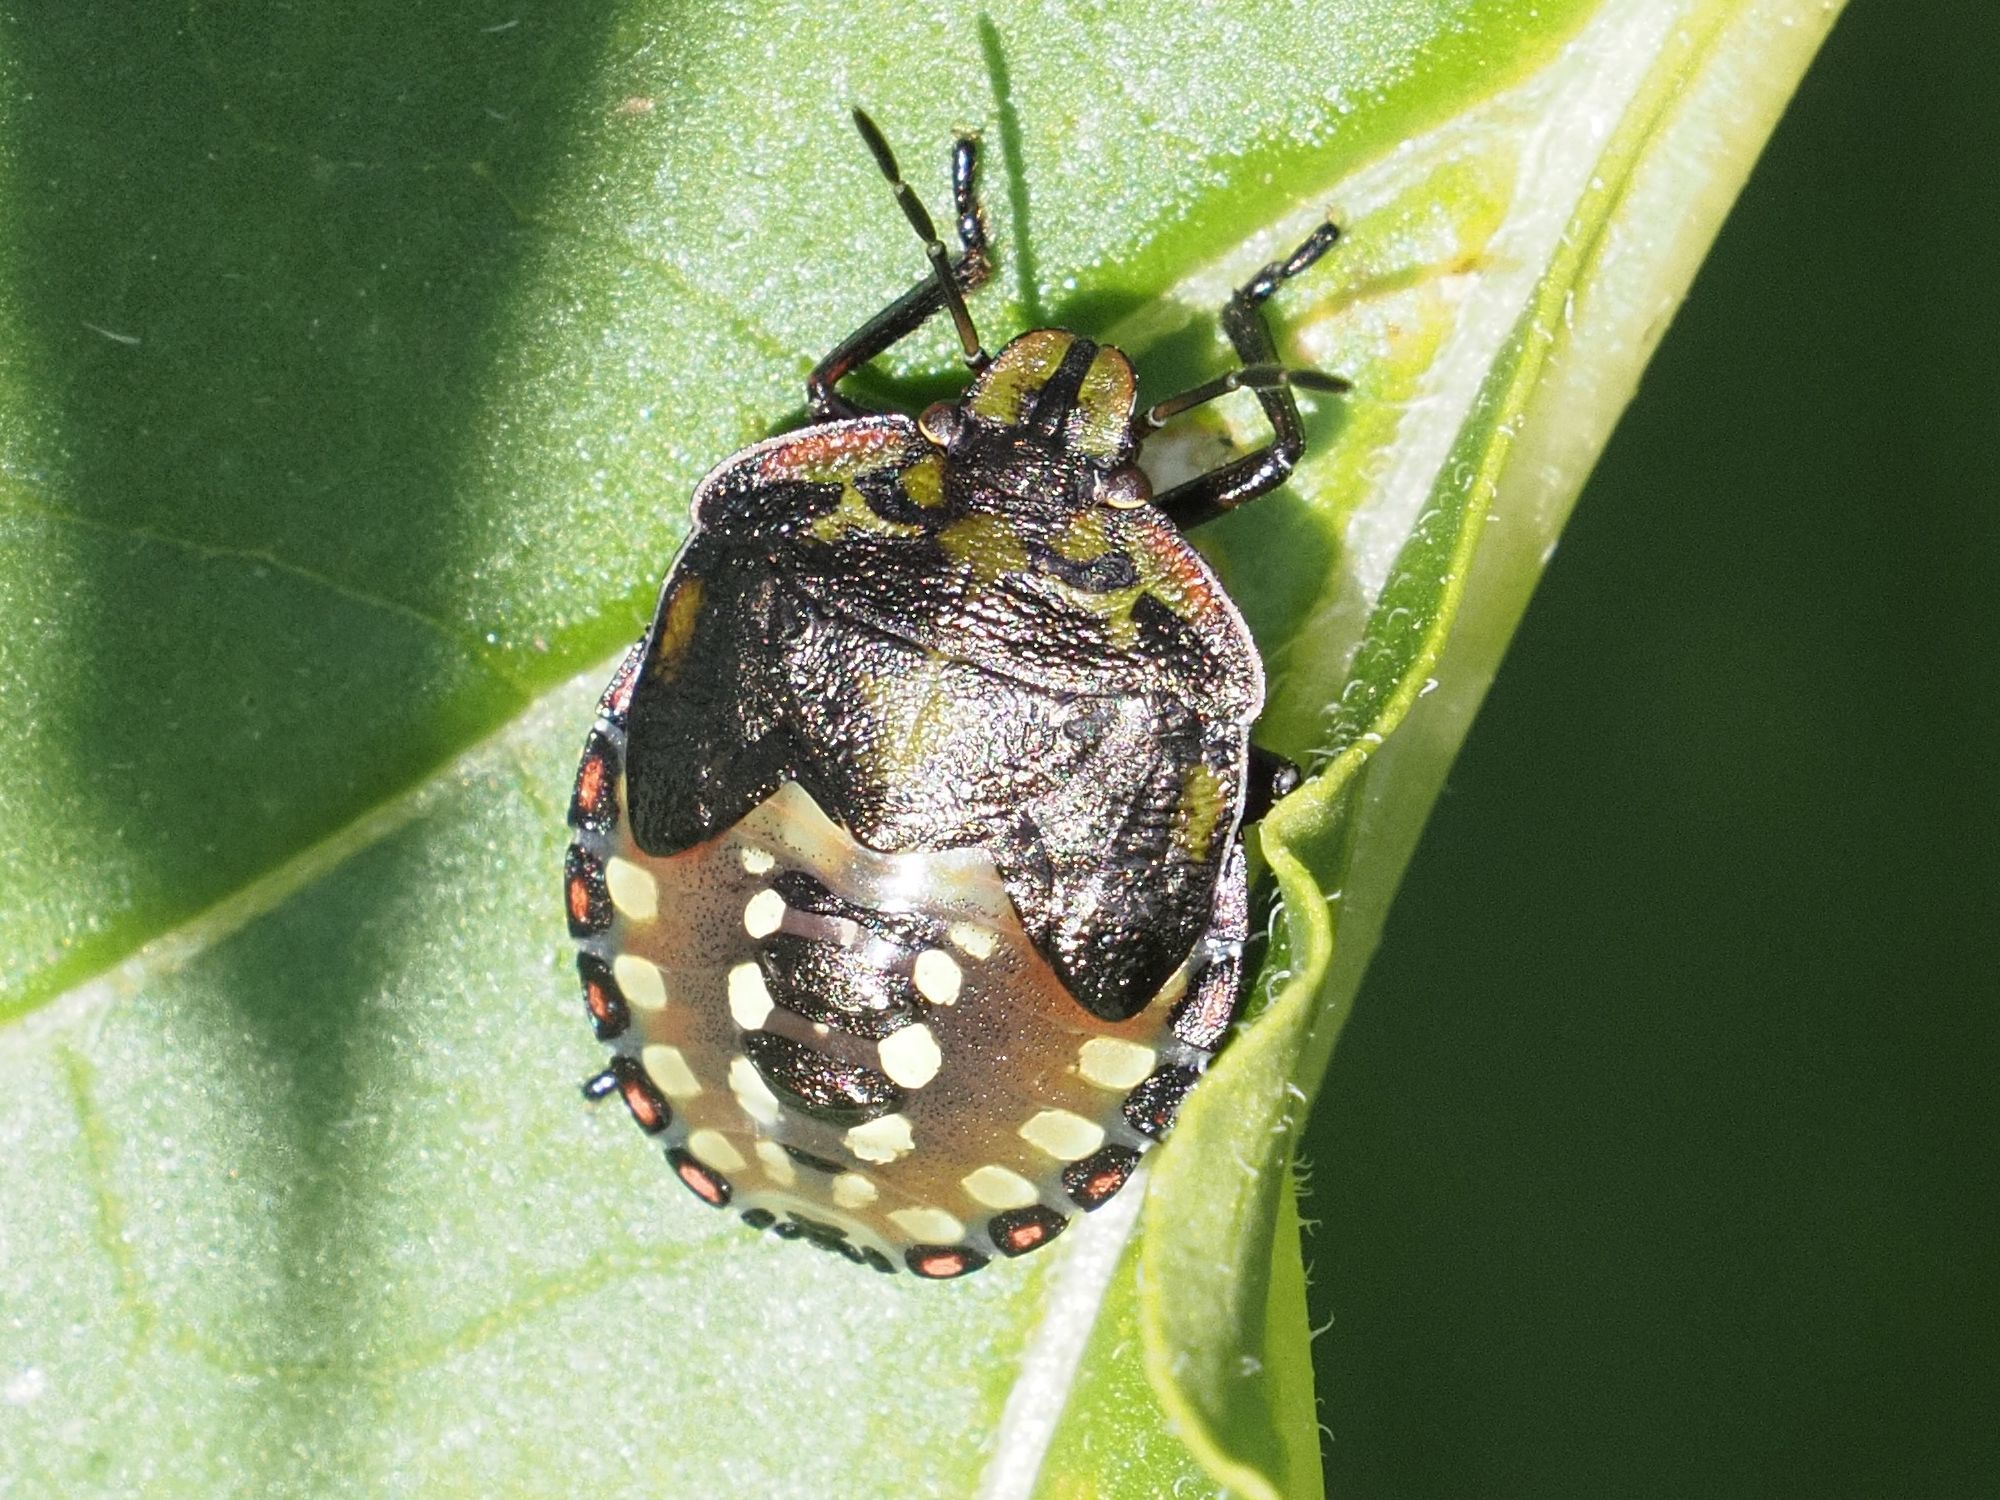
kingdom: Animalia
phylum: Arthropoda
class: Insecta
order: Hemiptera
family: Pentatomidae
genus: Nezara
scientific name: Nezara viridula
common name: Southern green stink bug
